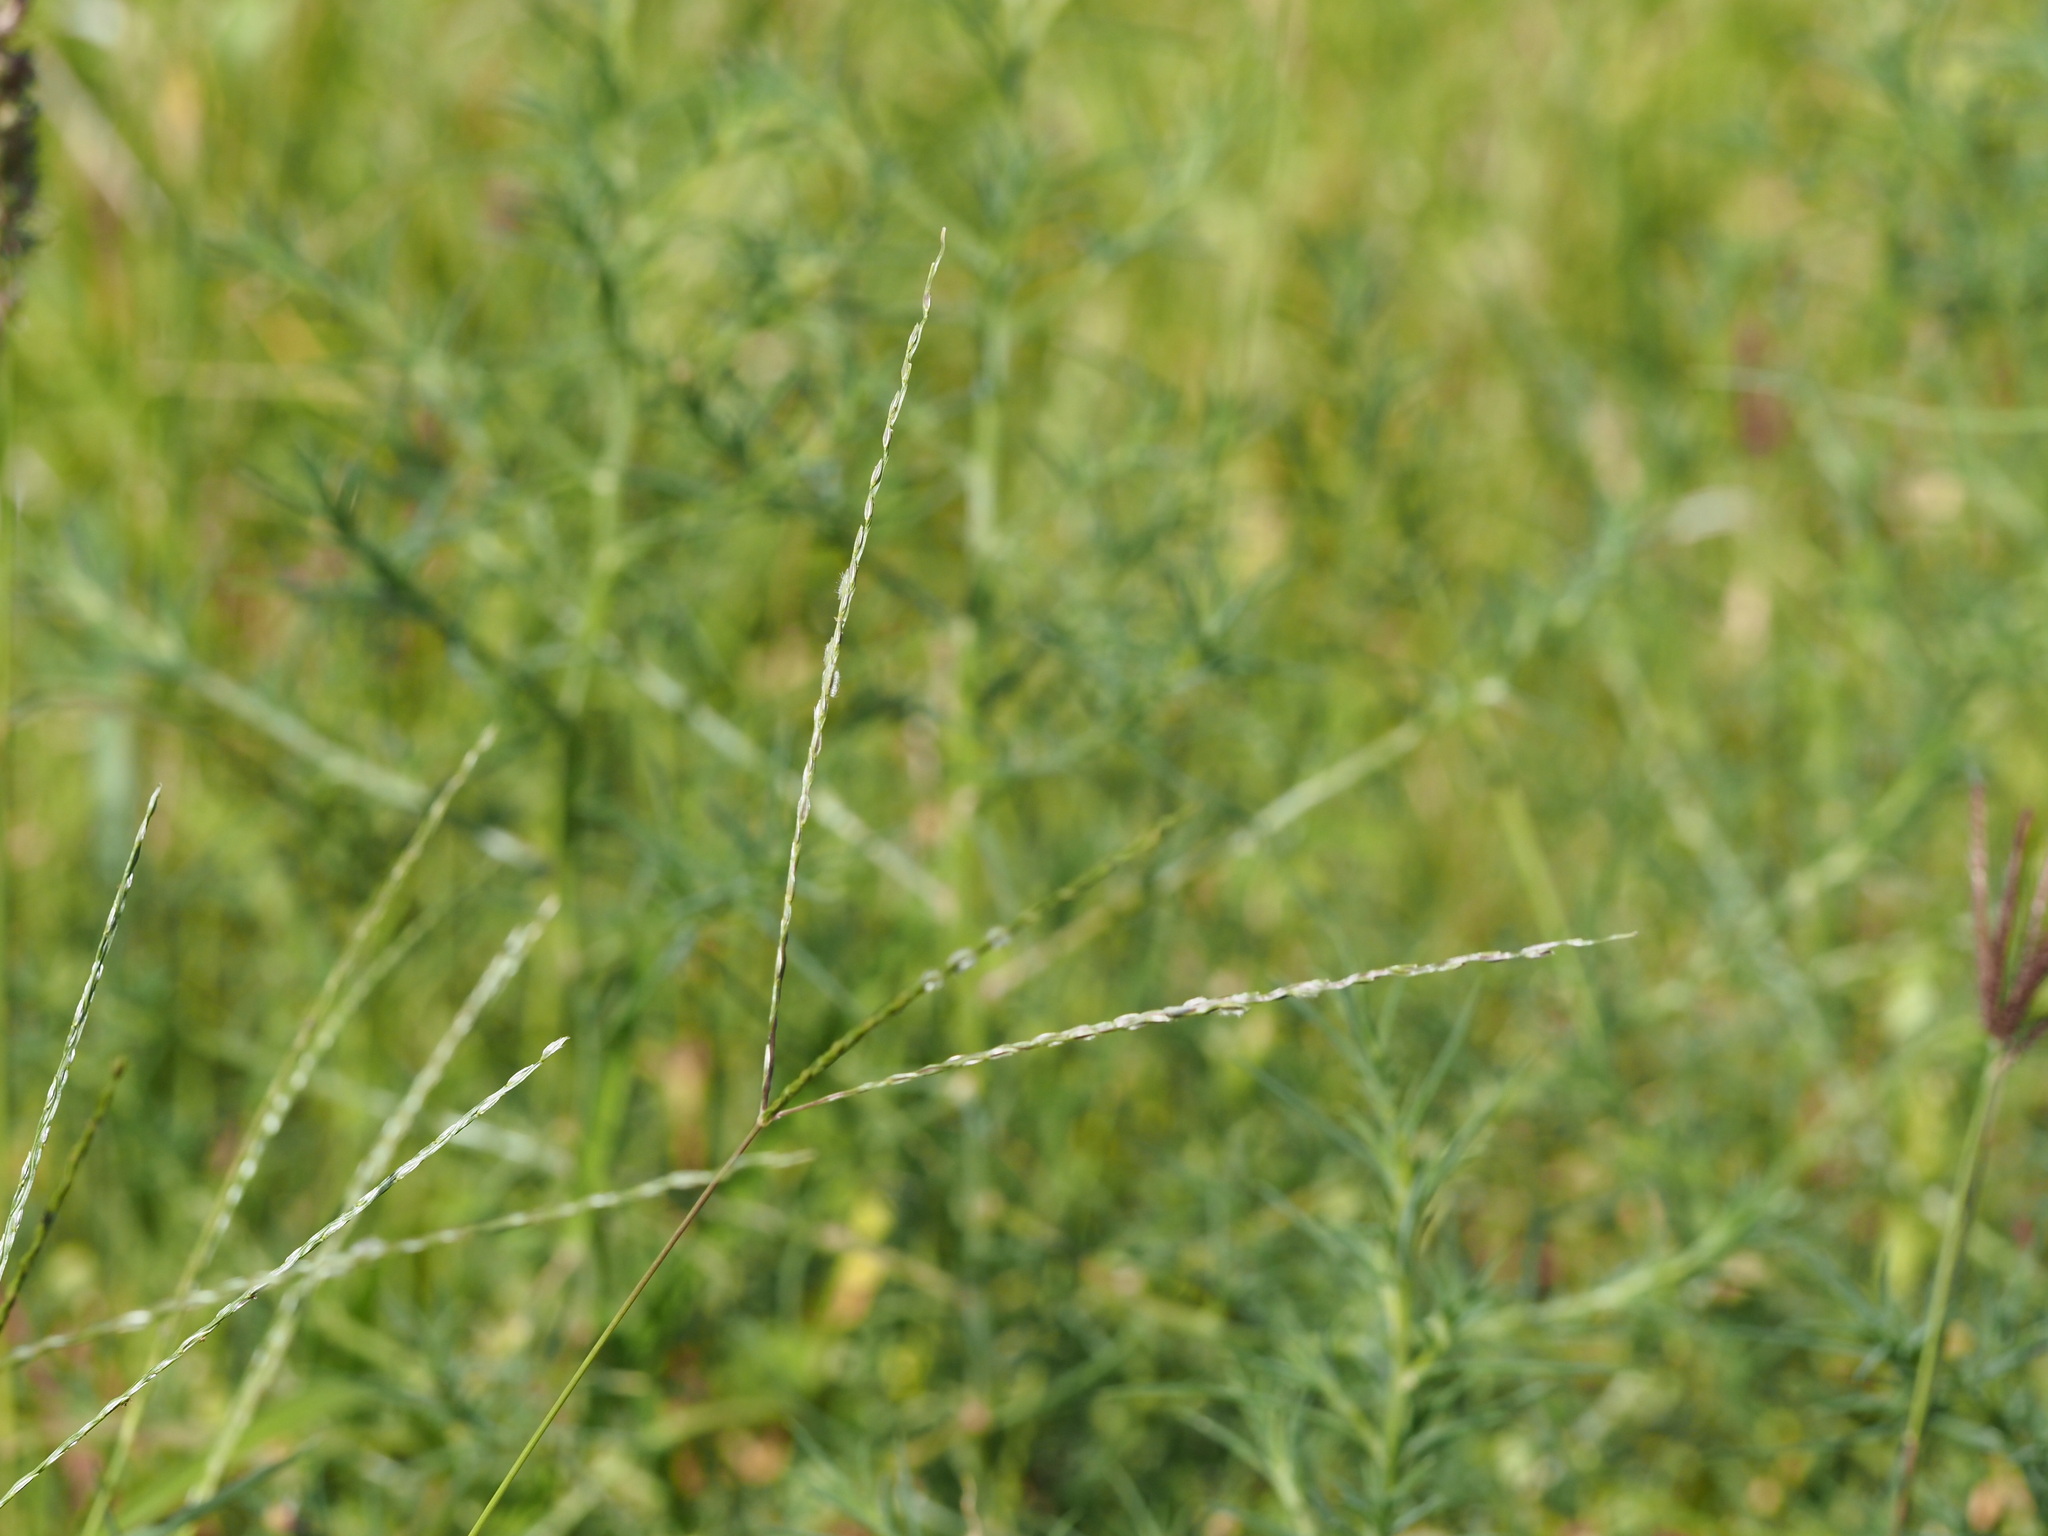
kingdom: Plantae
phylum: Tracheophyta
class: Liliopsida
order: Poales
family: Poaceae
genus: Digitaria
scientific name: Digitaria bicornis
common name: Asian crabgrass
